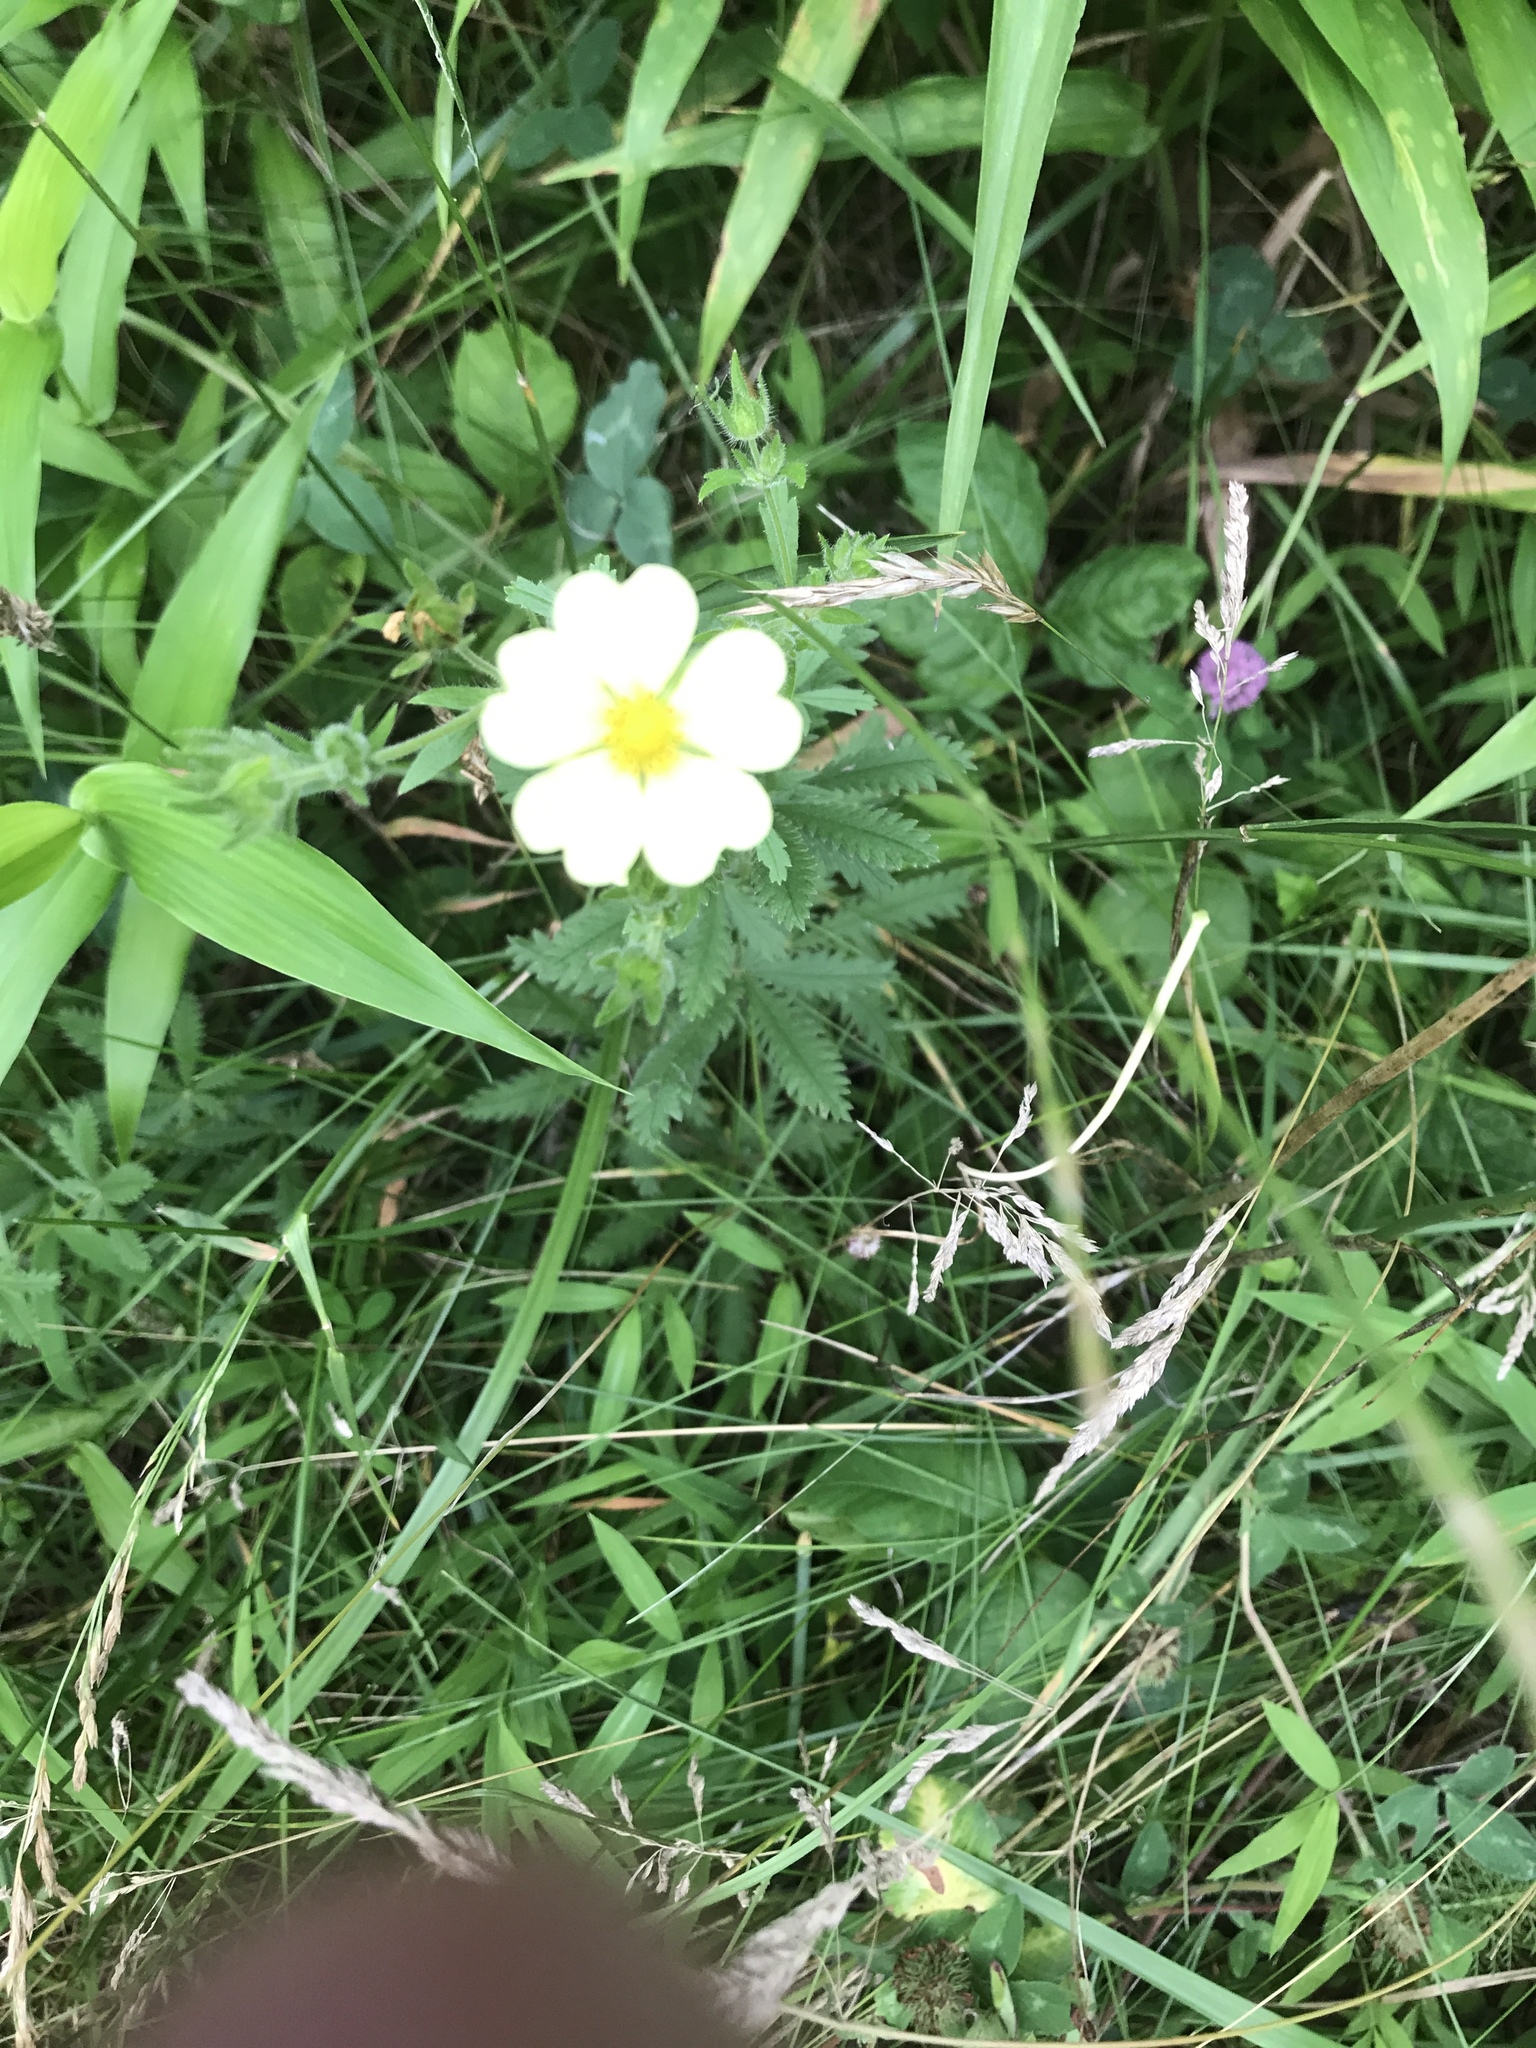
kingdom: Plantae
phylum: Tracheophyta
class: Magnoliopsida
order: Rosales
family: Rosaceae
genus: Potentilla
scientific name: Potentilla recta
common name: Sulphur cinquefoil
